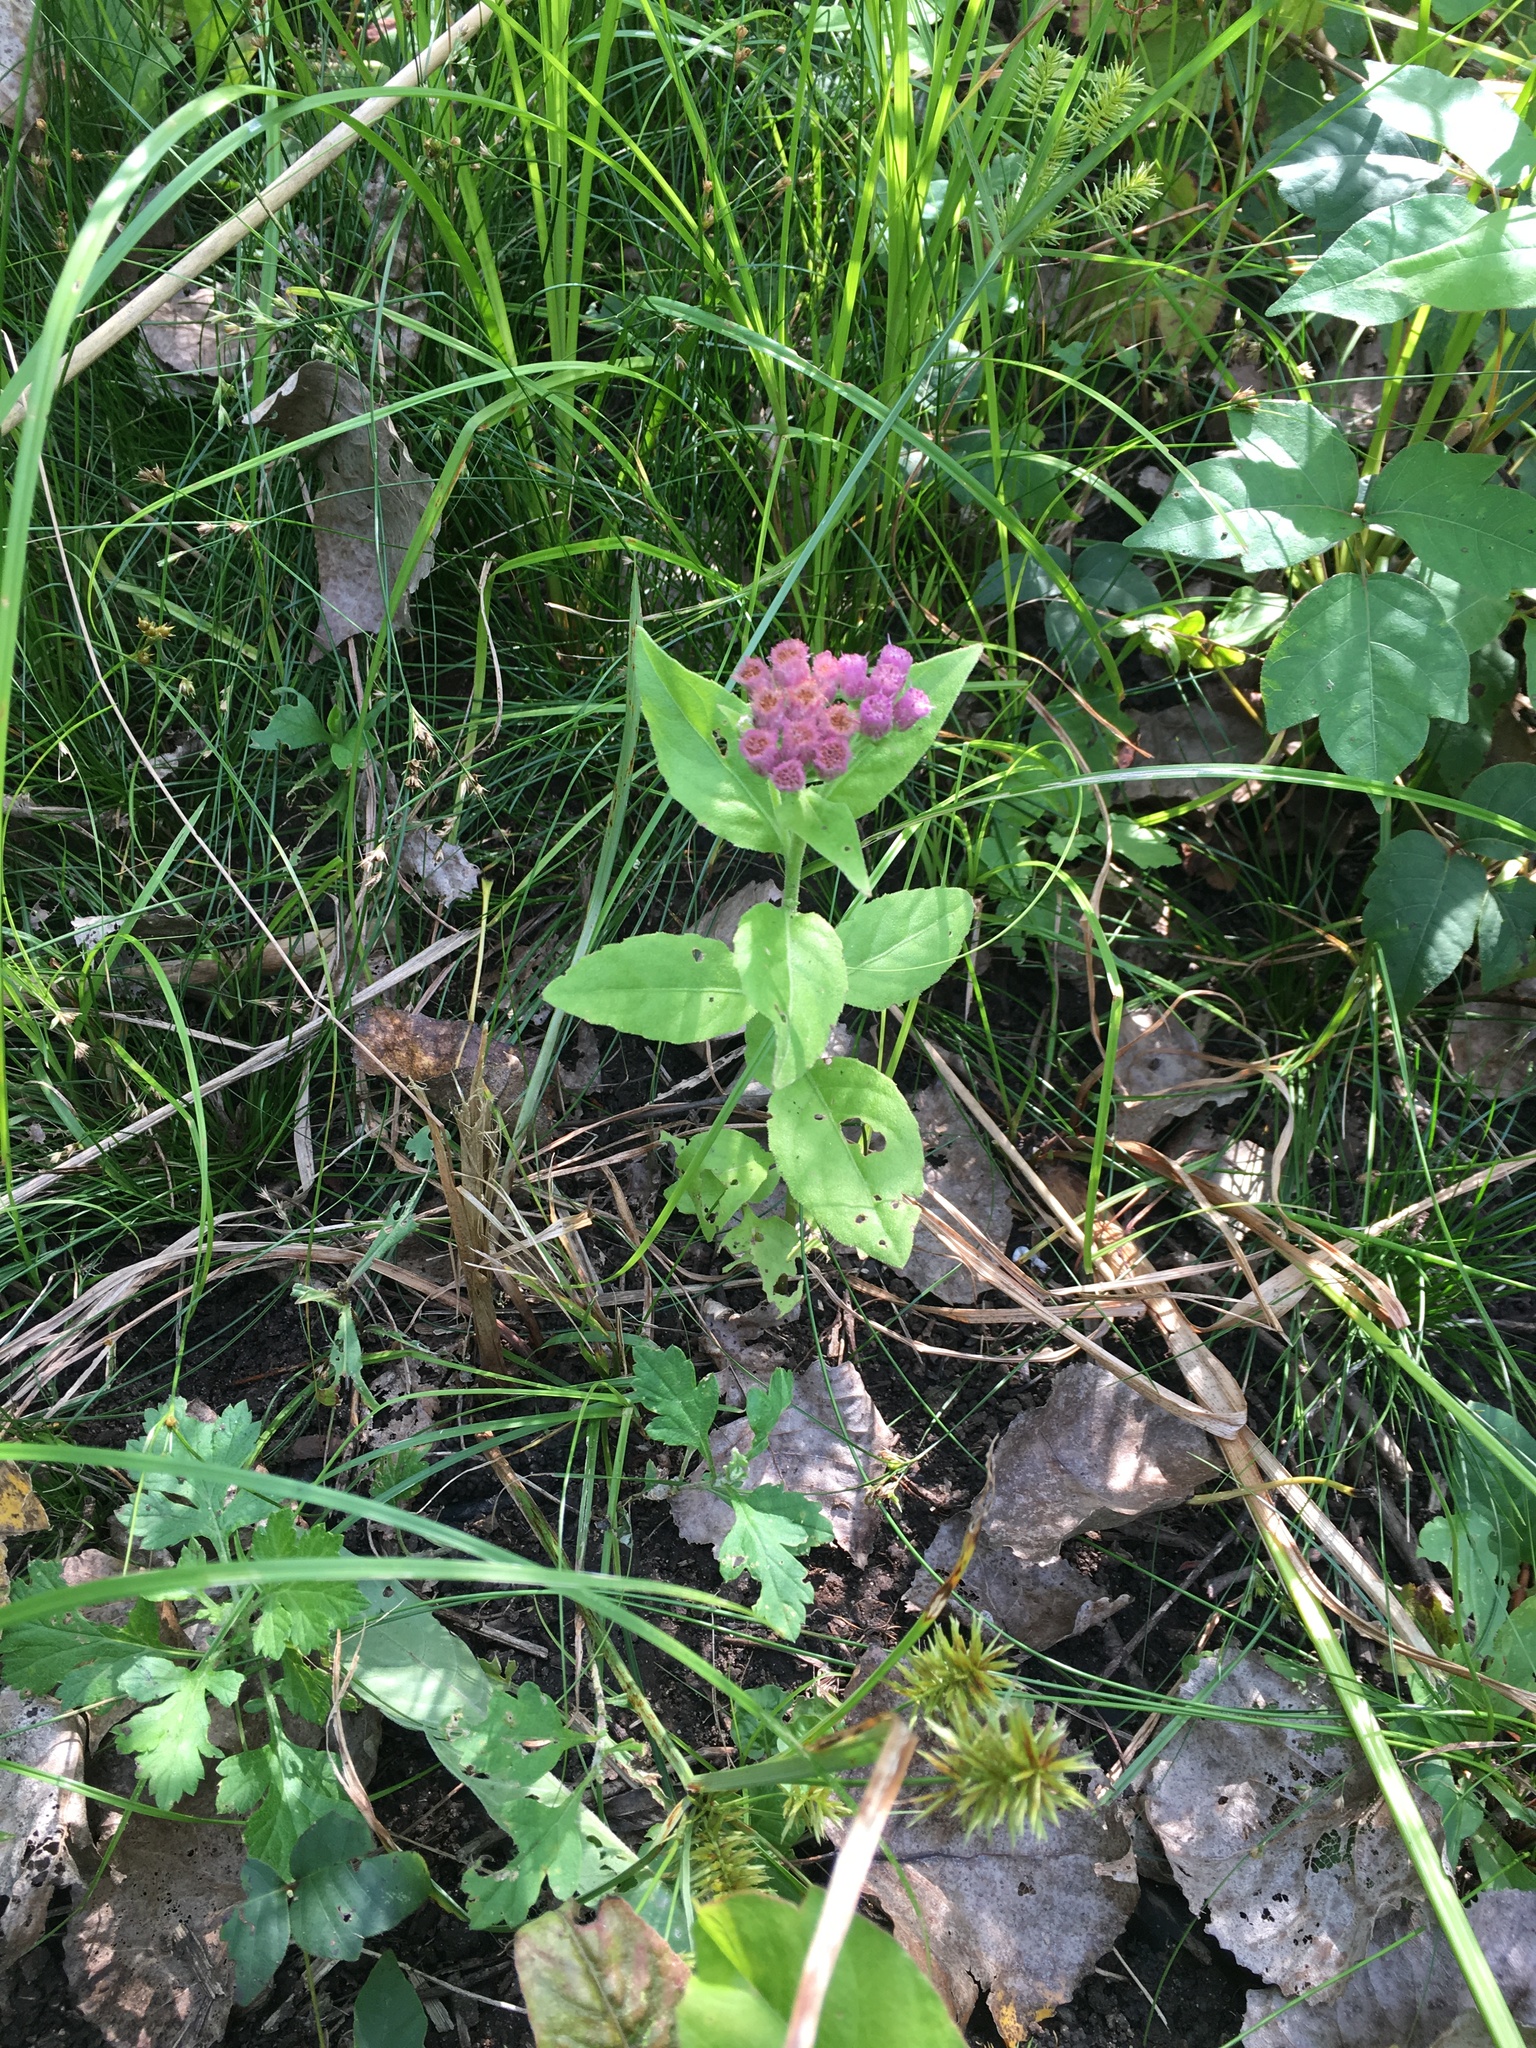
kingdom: Plantae
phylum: Tracheophyta
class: Magnoliopsida
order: Asterales
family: Asteraceae
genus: Pluchea
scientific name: Pluchea odorata
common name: Saltmarsh fleabane
